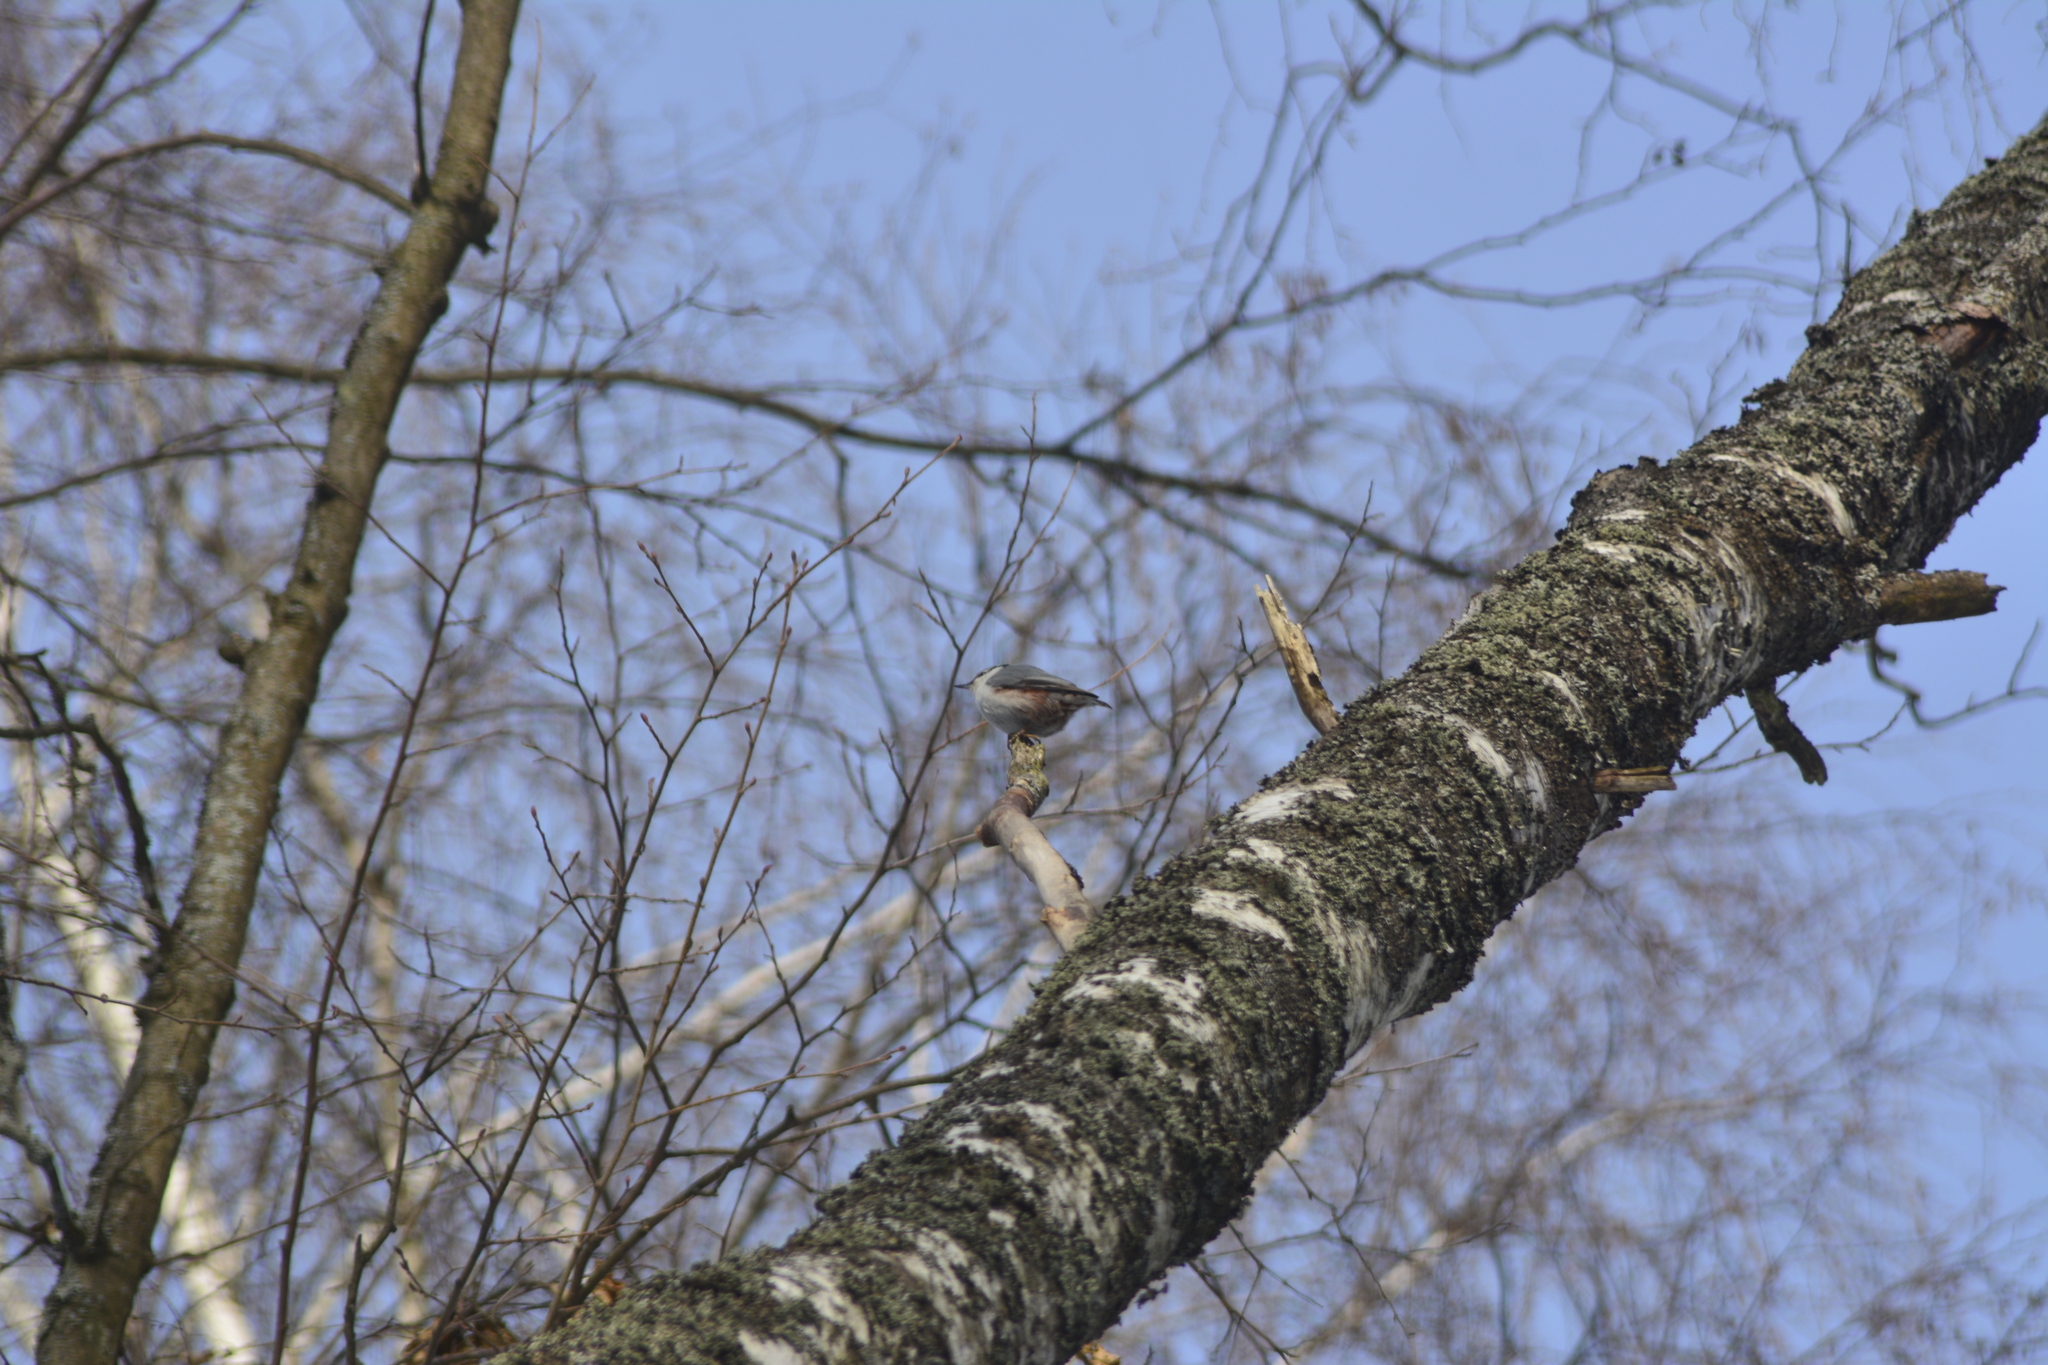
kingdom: Animalia
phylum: Chordata
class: Aves
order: Passeriformes
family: Sittidae
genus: Sitta
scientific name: Sitta europaea
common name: Eurasian nuthatch
